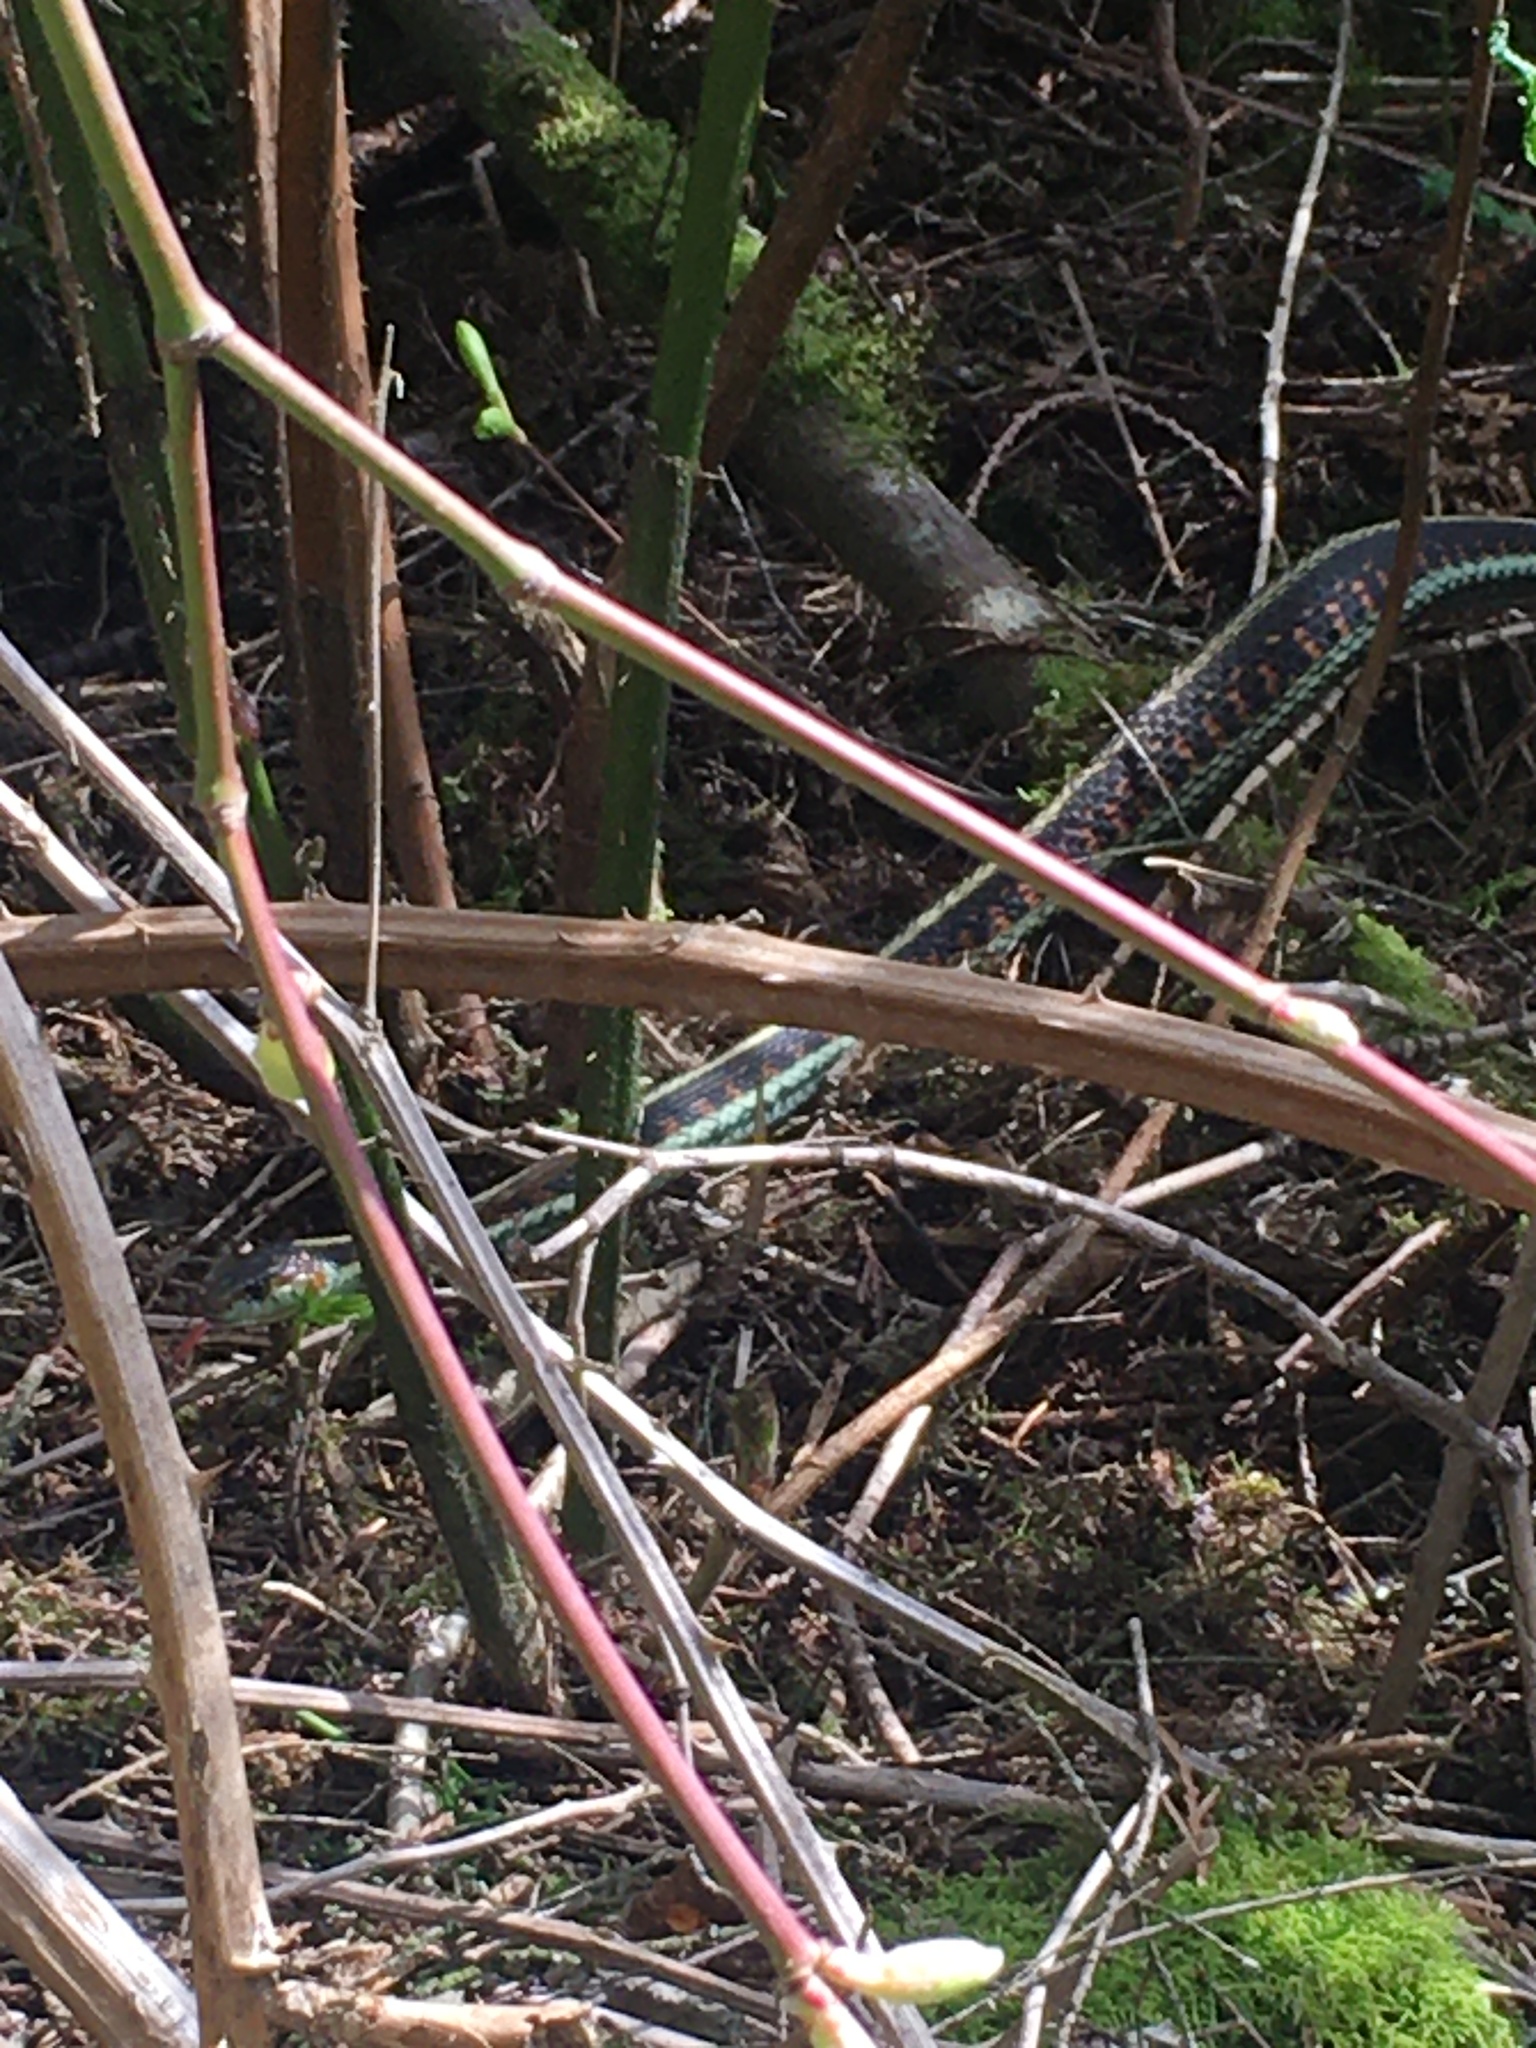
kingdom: Animalia
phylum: Chordata
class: Squamata
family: Colubridae
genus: Thamnophis
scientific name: Thamnophis sirtalis
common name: Common garter snake
